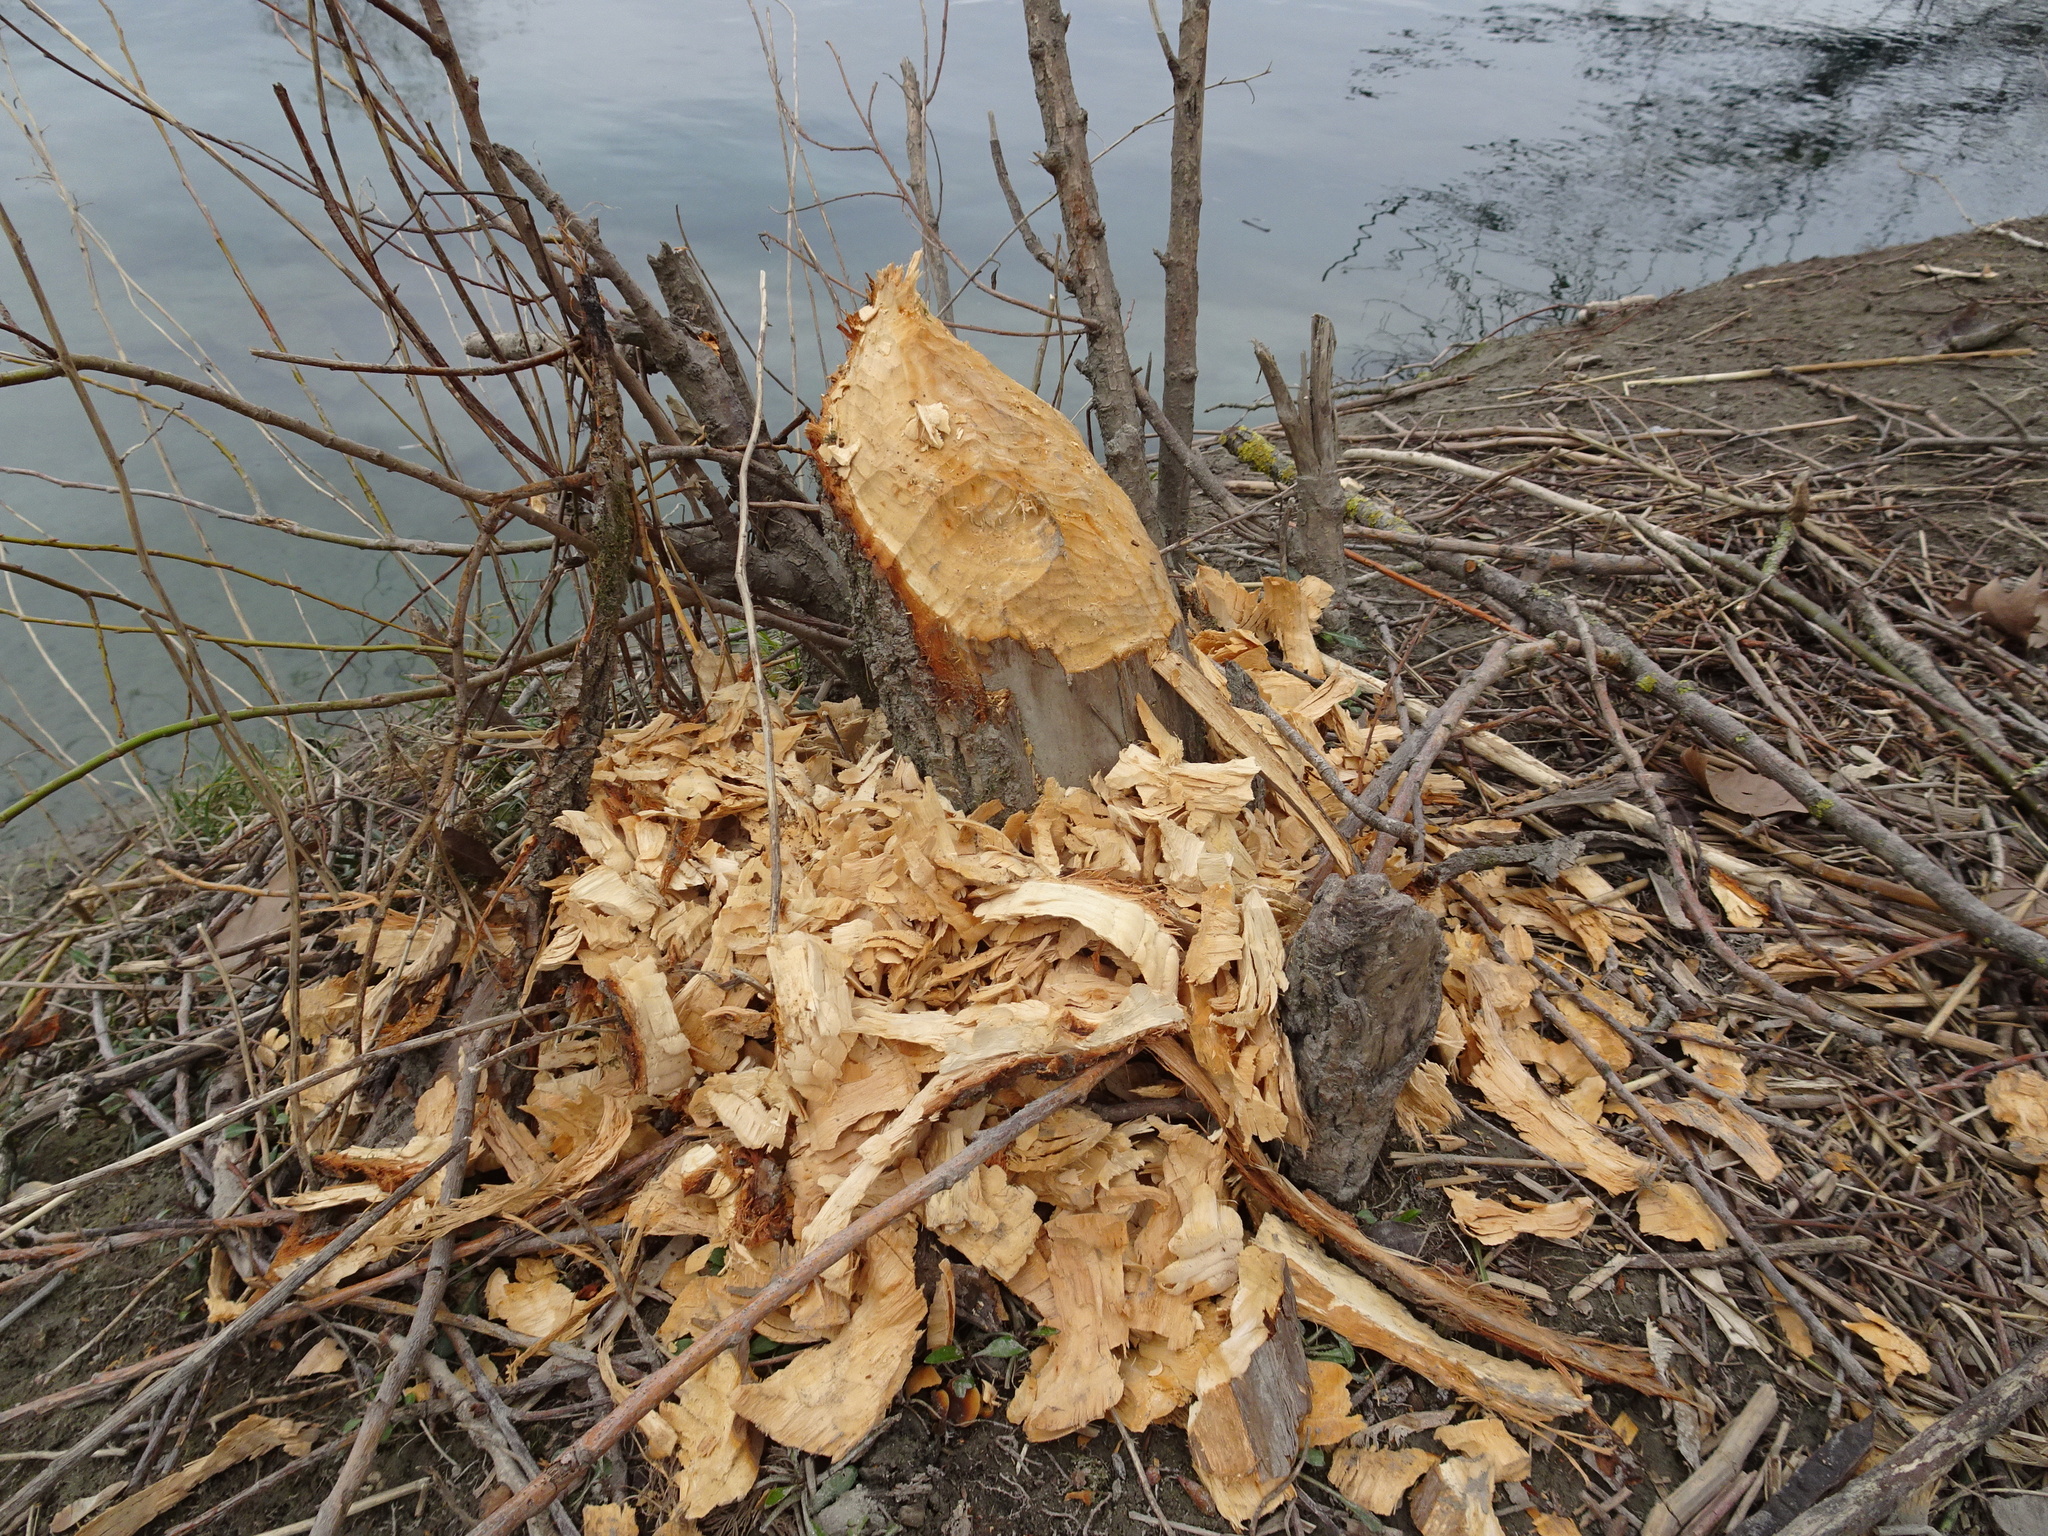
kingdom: Animalia
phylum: Chordata
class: Mammalia
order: Rodentia
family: Castoridae
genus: Castor
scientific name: Castor fiber
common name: Eurasian beaver
